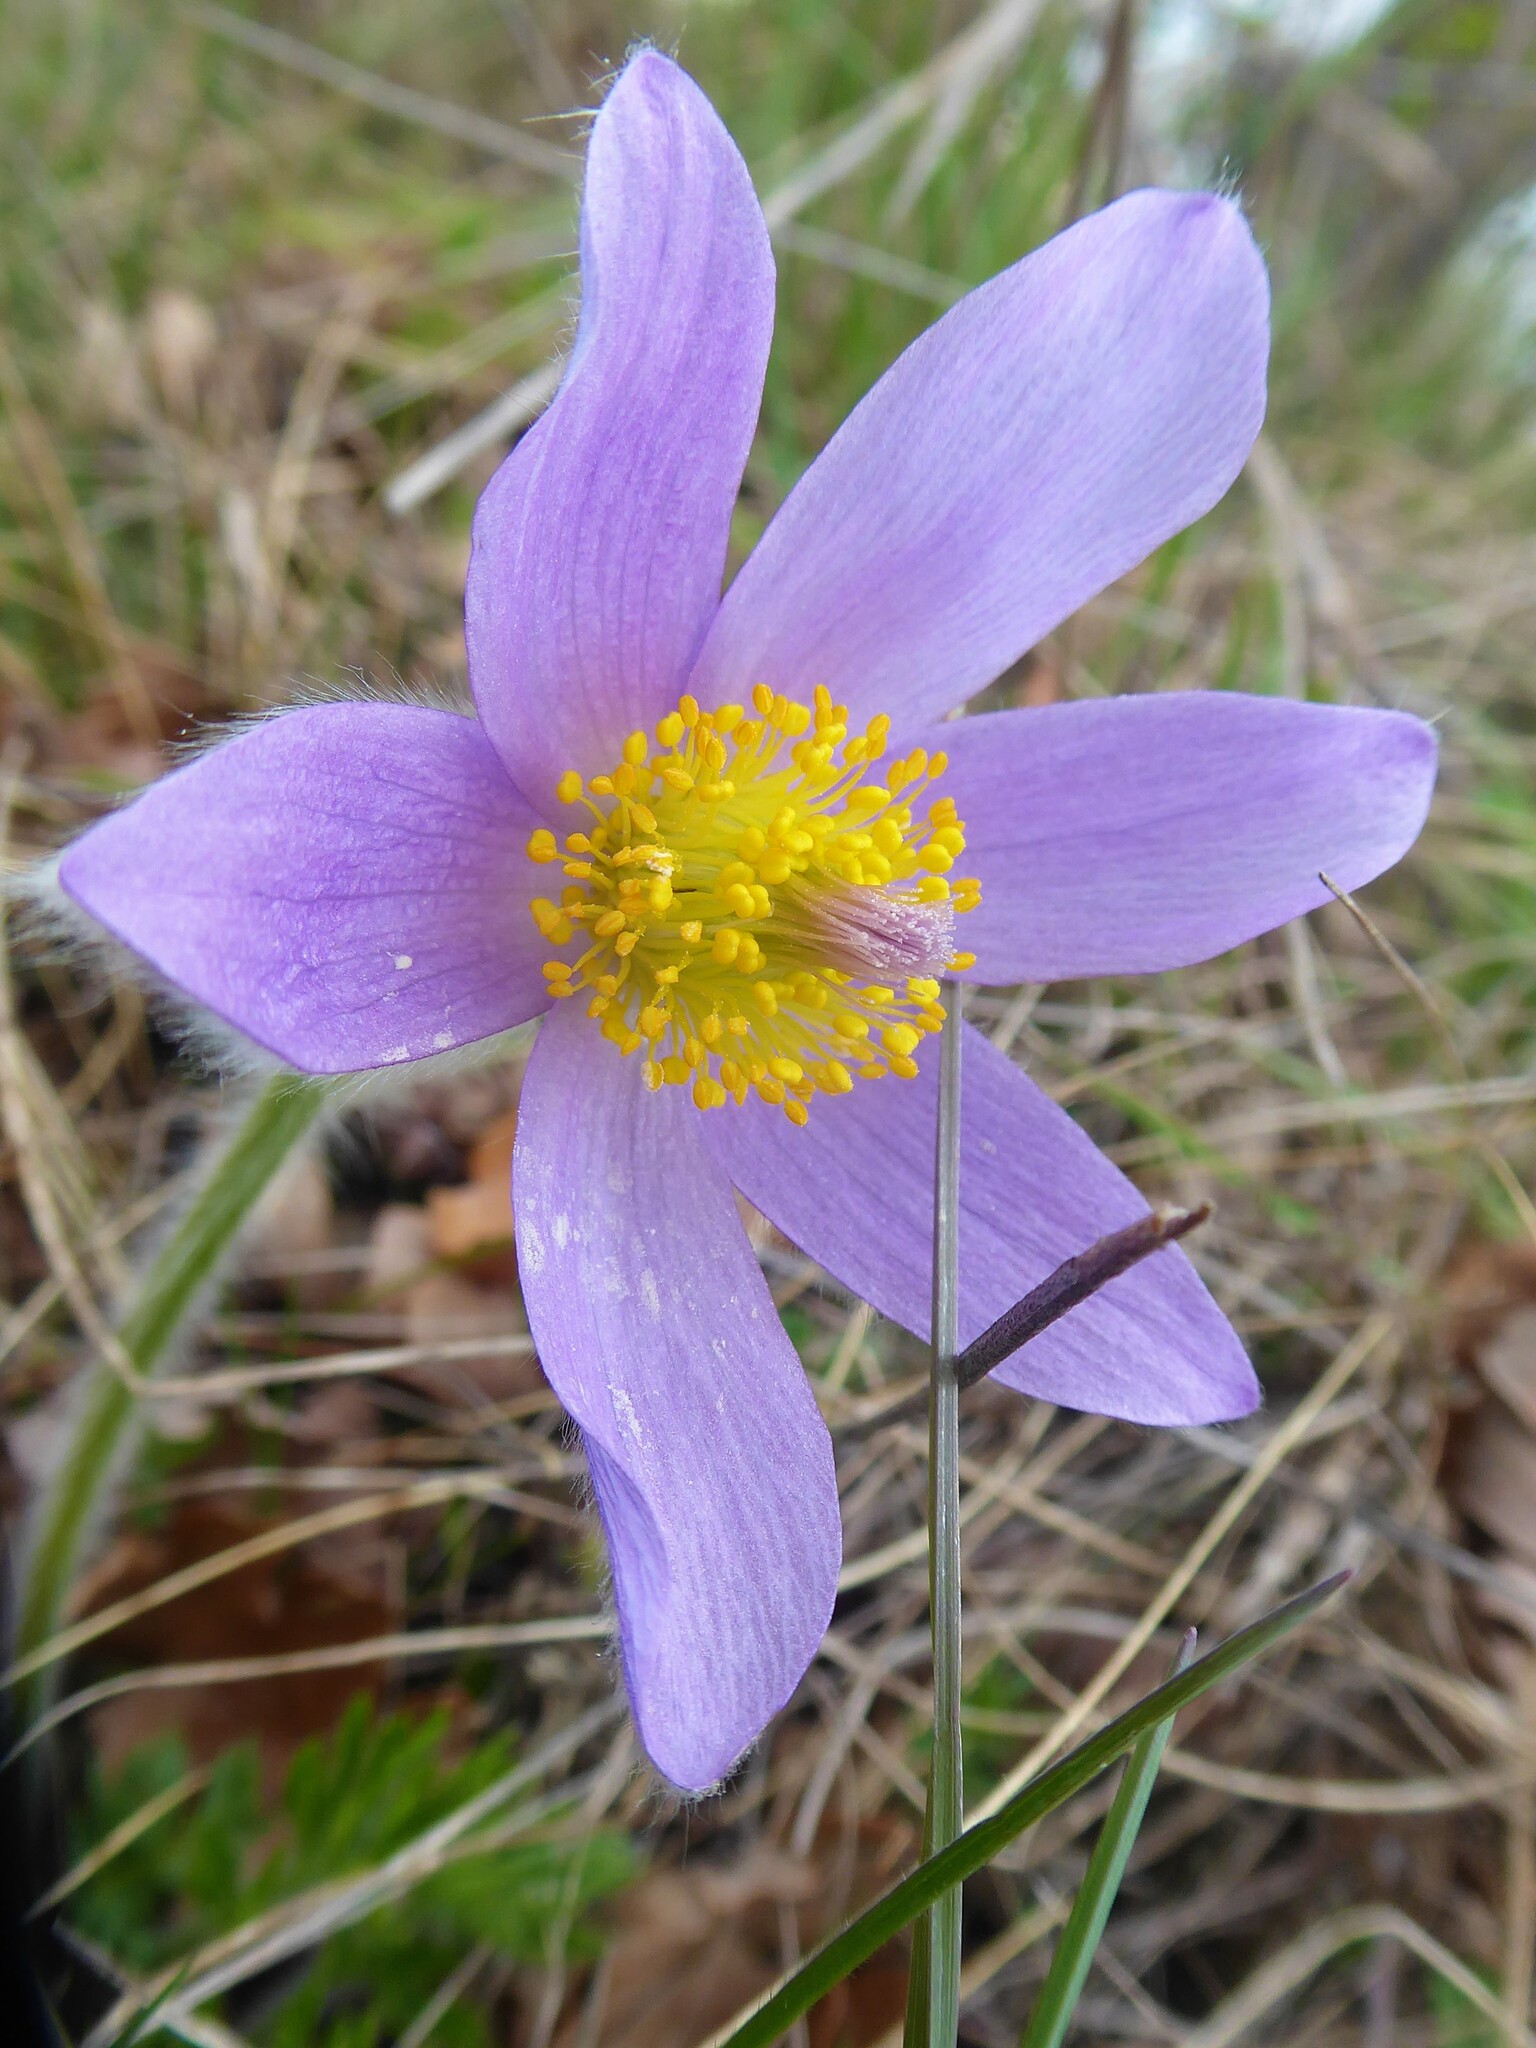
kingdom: Plantae
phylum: Tracheophyta
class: Magnoliopsida
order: Ranunculales
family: Ranunculaceae
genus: Pulsatilla
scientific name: Pulsatilla grandis
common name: Greater pasque flower
